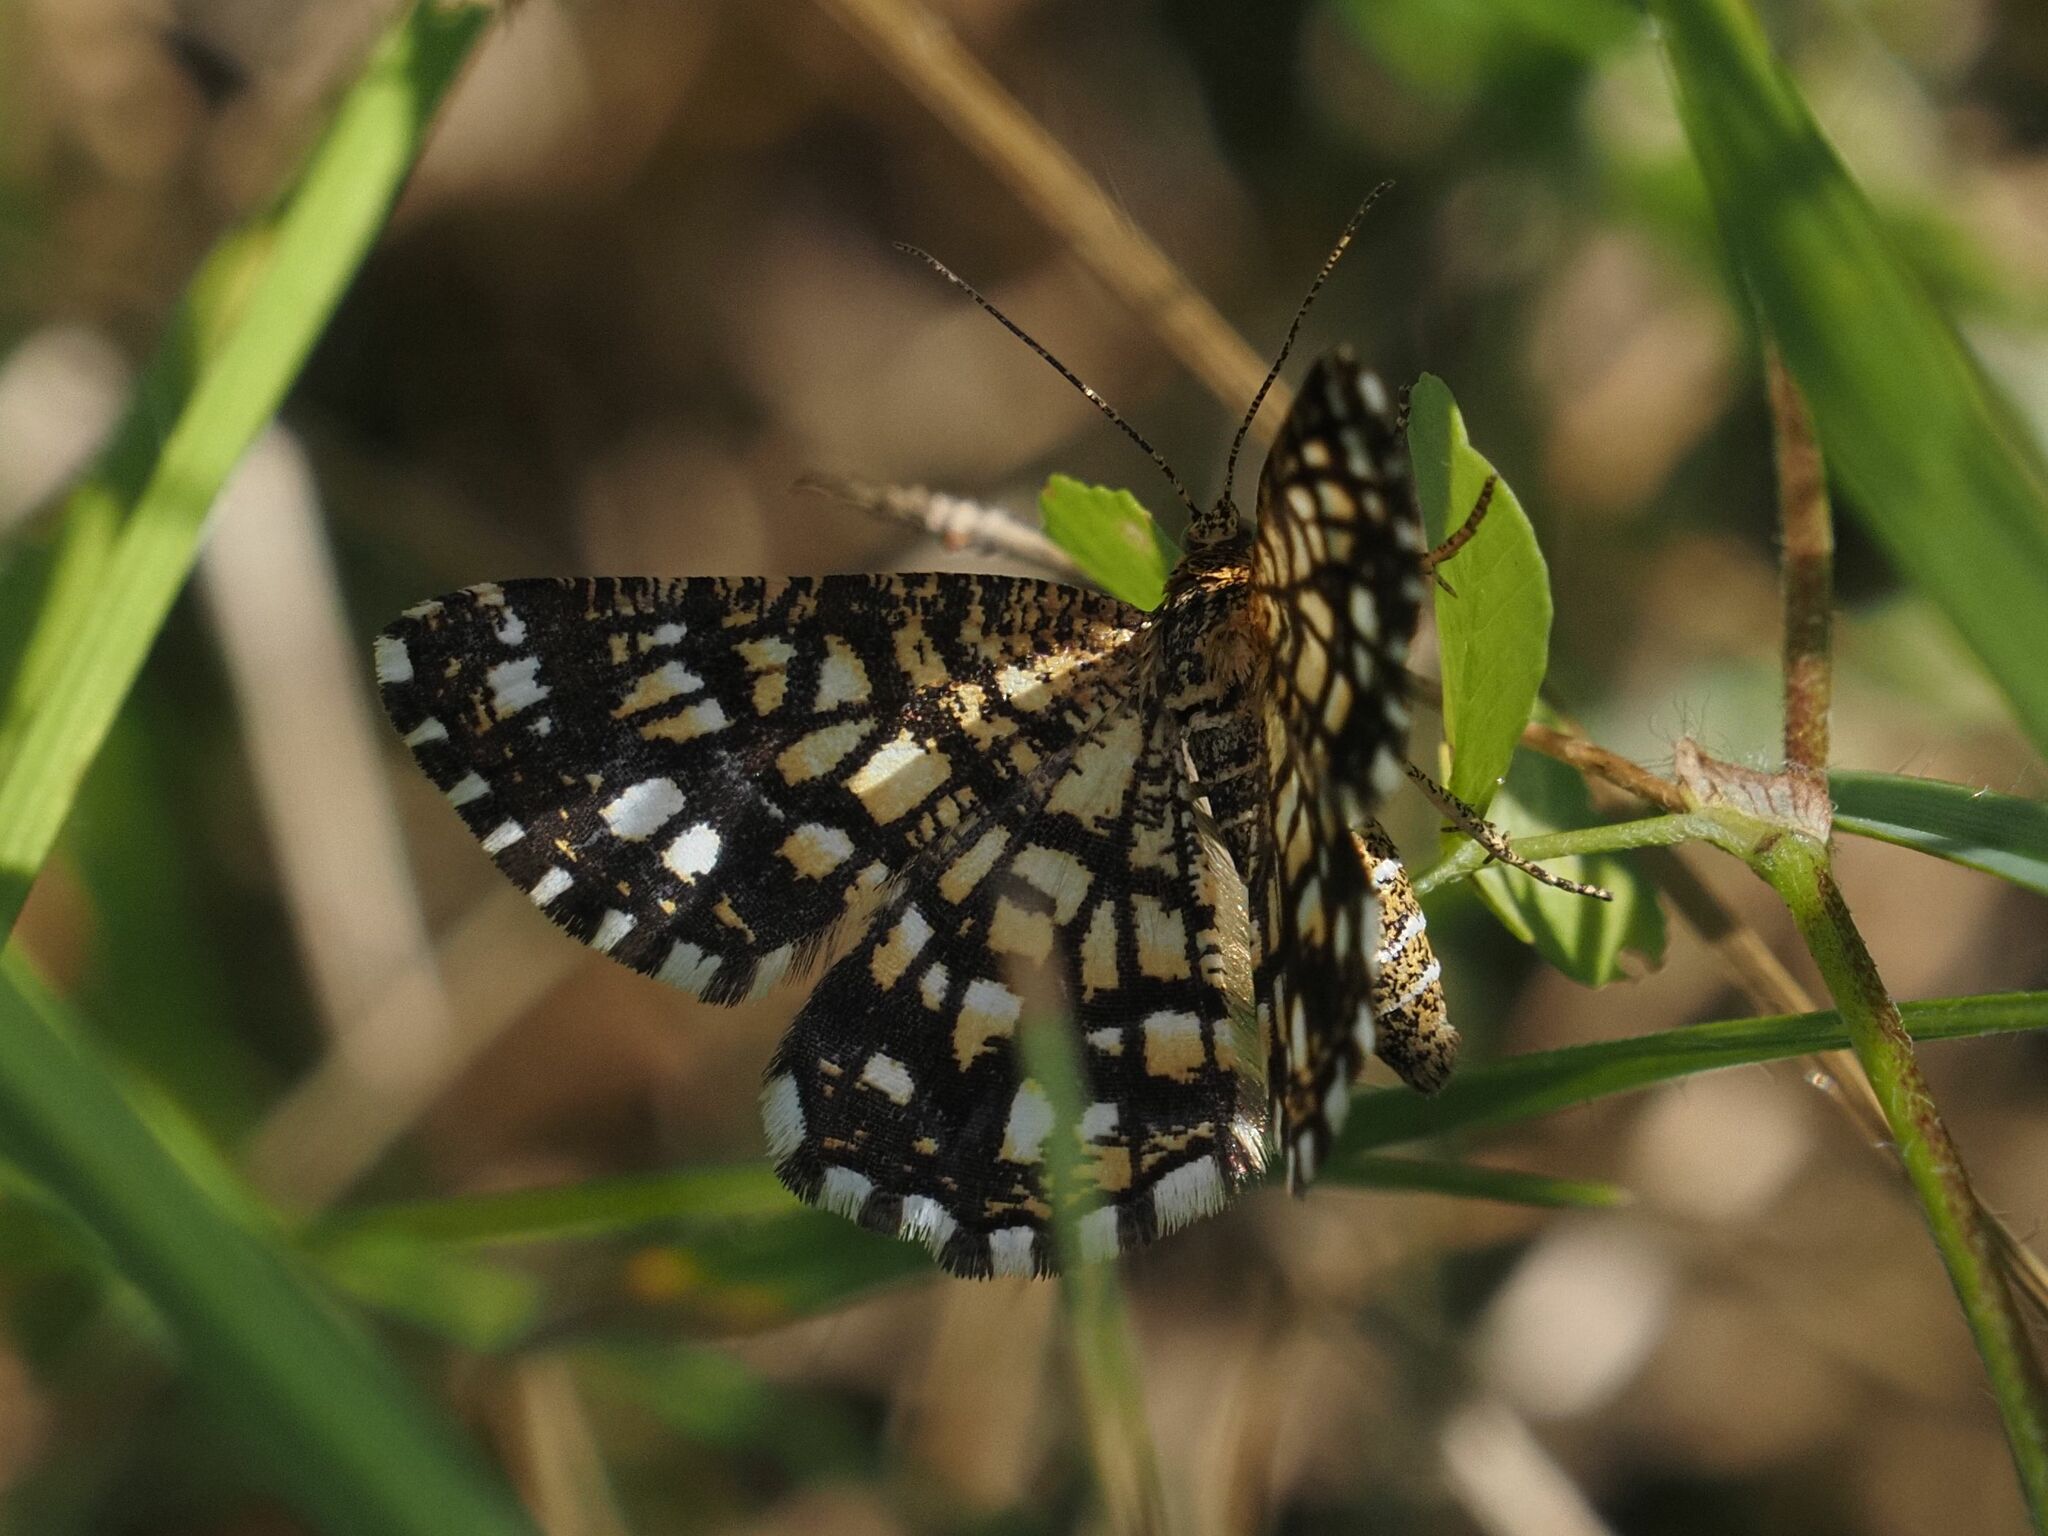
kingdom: Animalia
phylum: Arthropoda
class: Insecta
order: Lepidoptera
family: Geometridae
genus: Chiasmia
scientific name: Chiasmia clathrata
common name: Latticed heath
